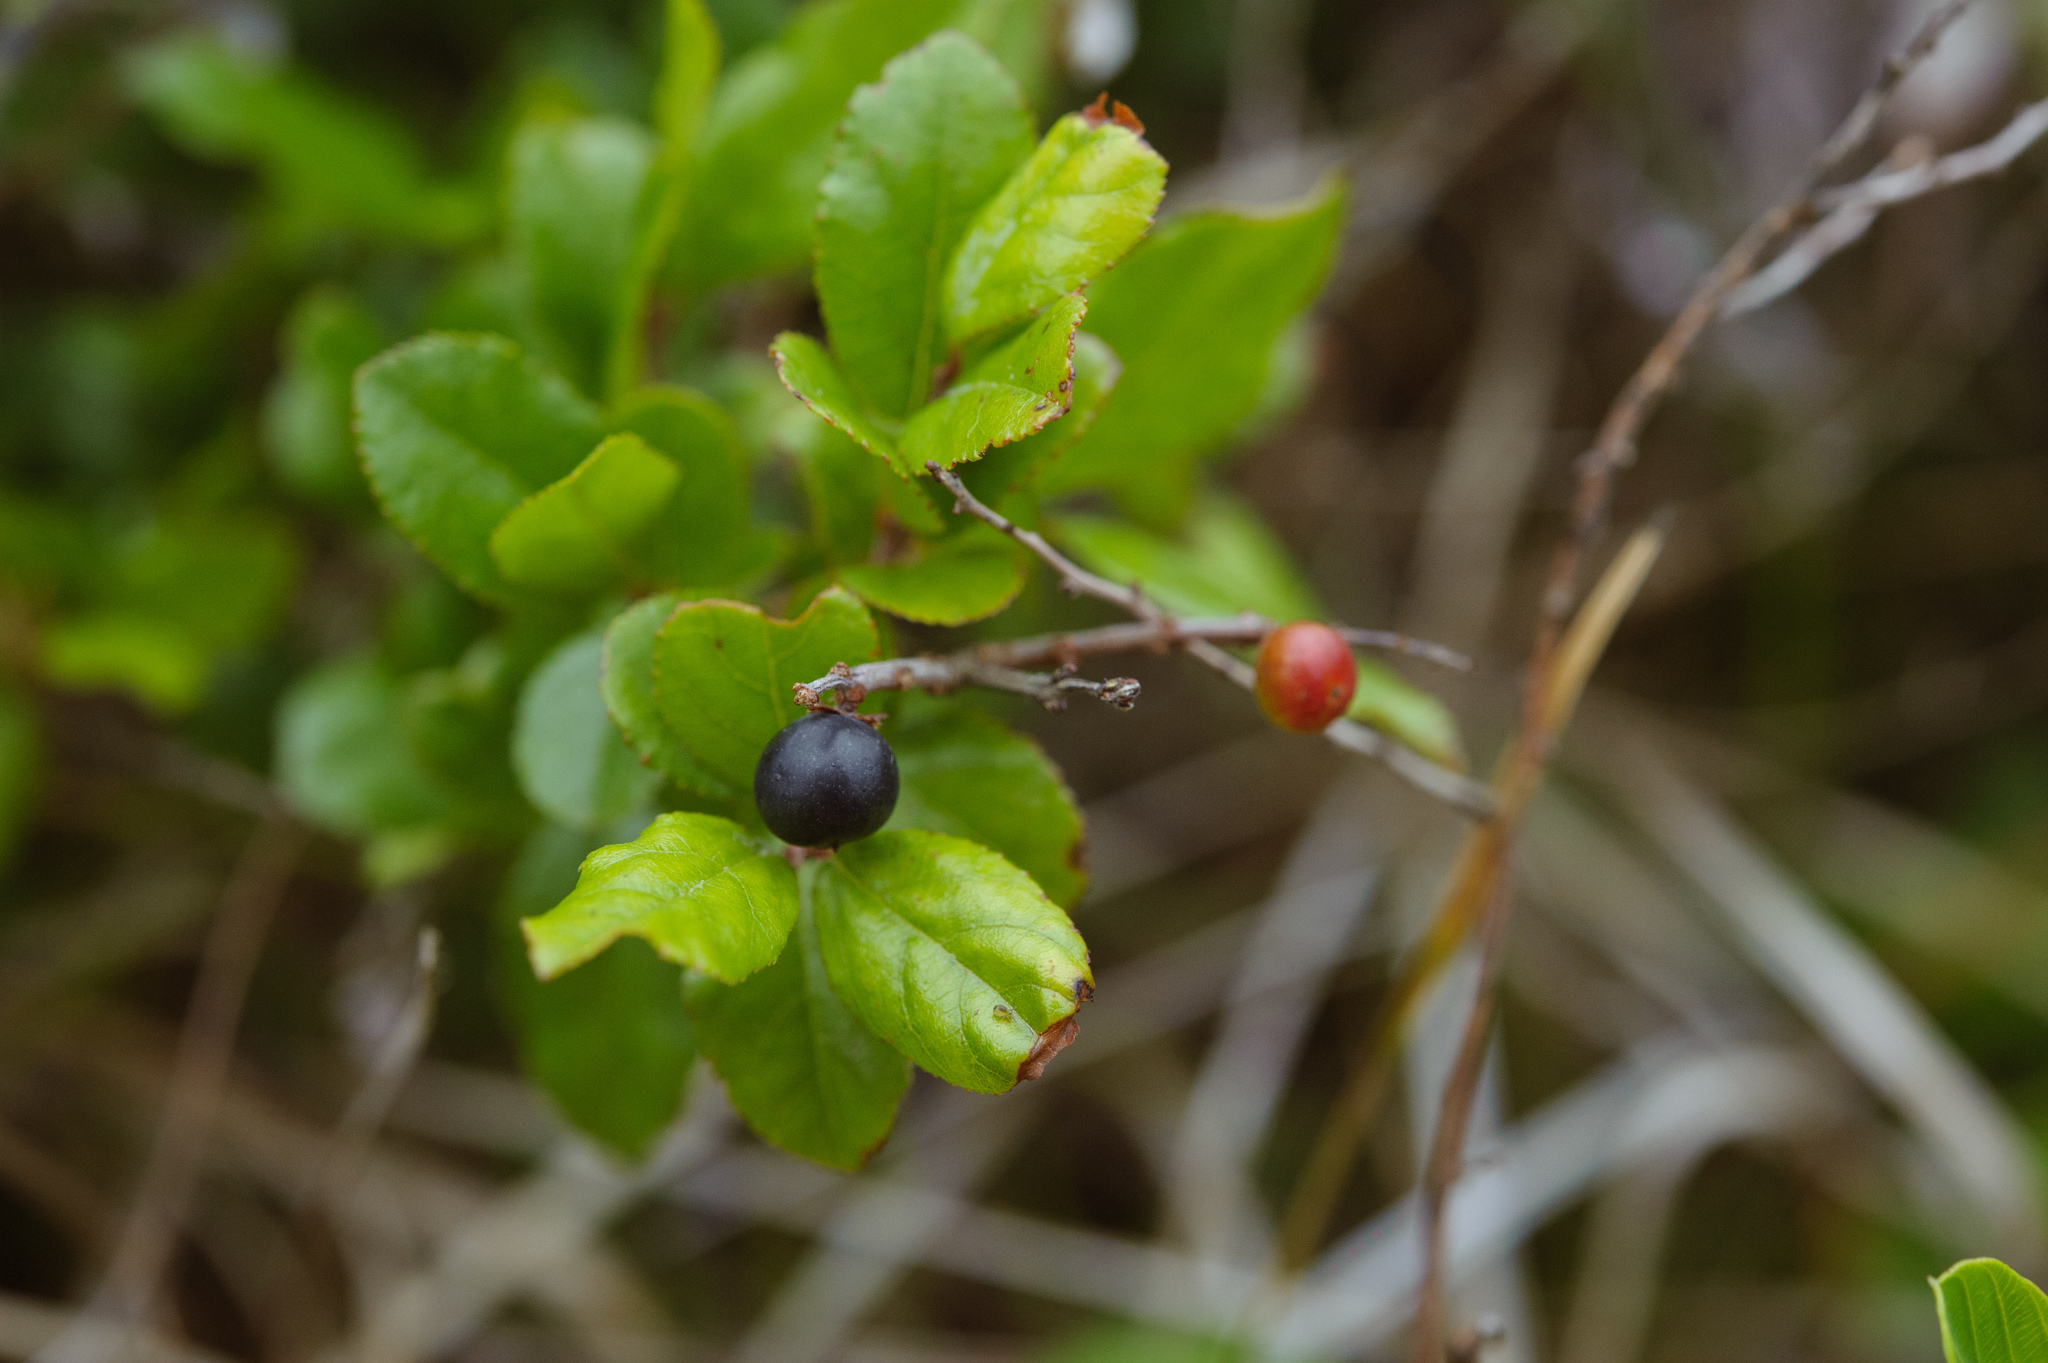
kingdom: Plantae
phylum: Tracheophyta
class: Magnoliopsida
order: Rosales
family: Rhamnaceae
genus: Sageretia
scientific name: Sageretia thea
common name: Pauper's-tea
